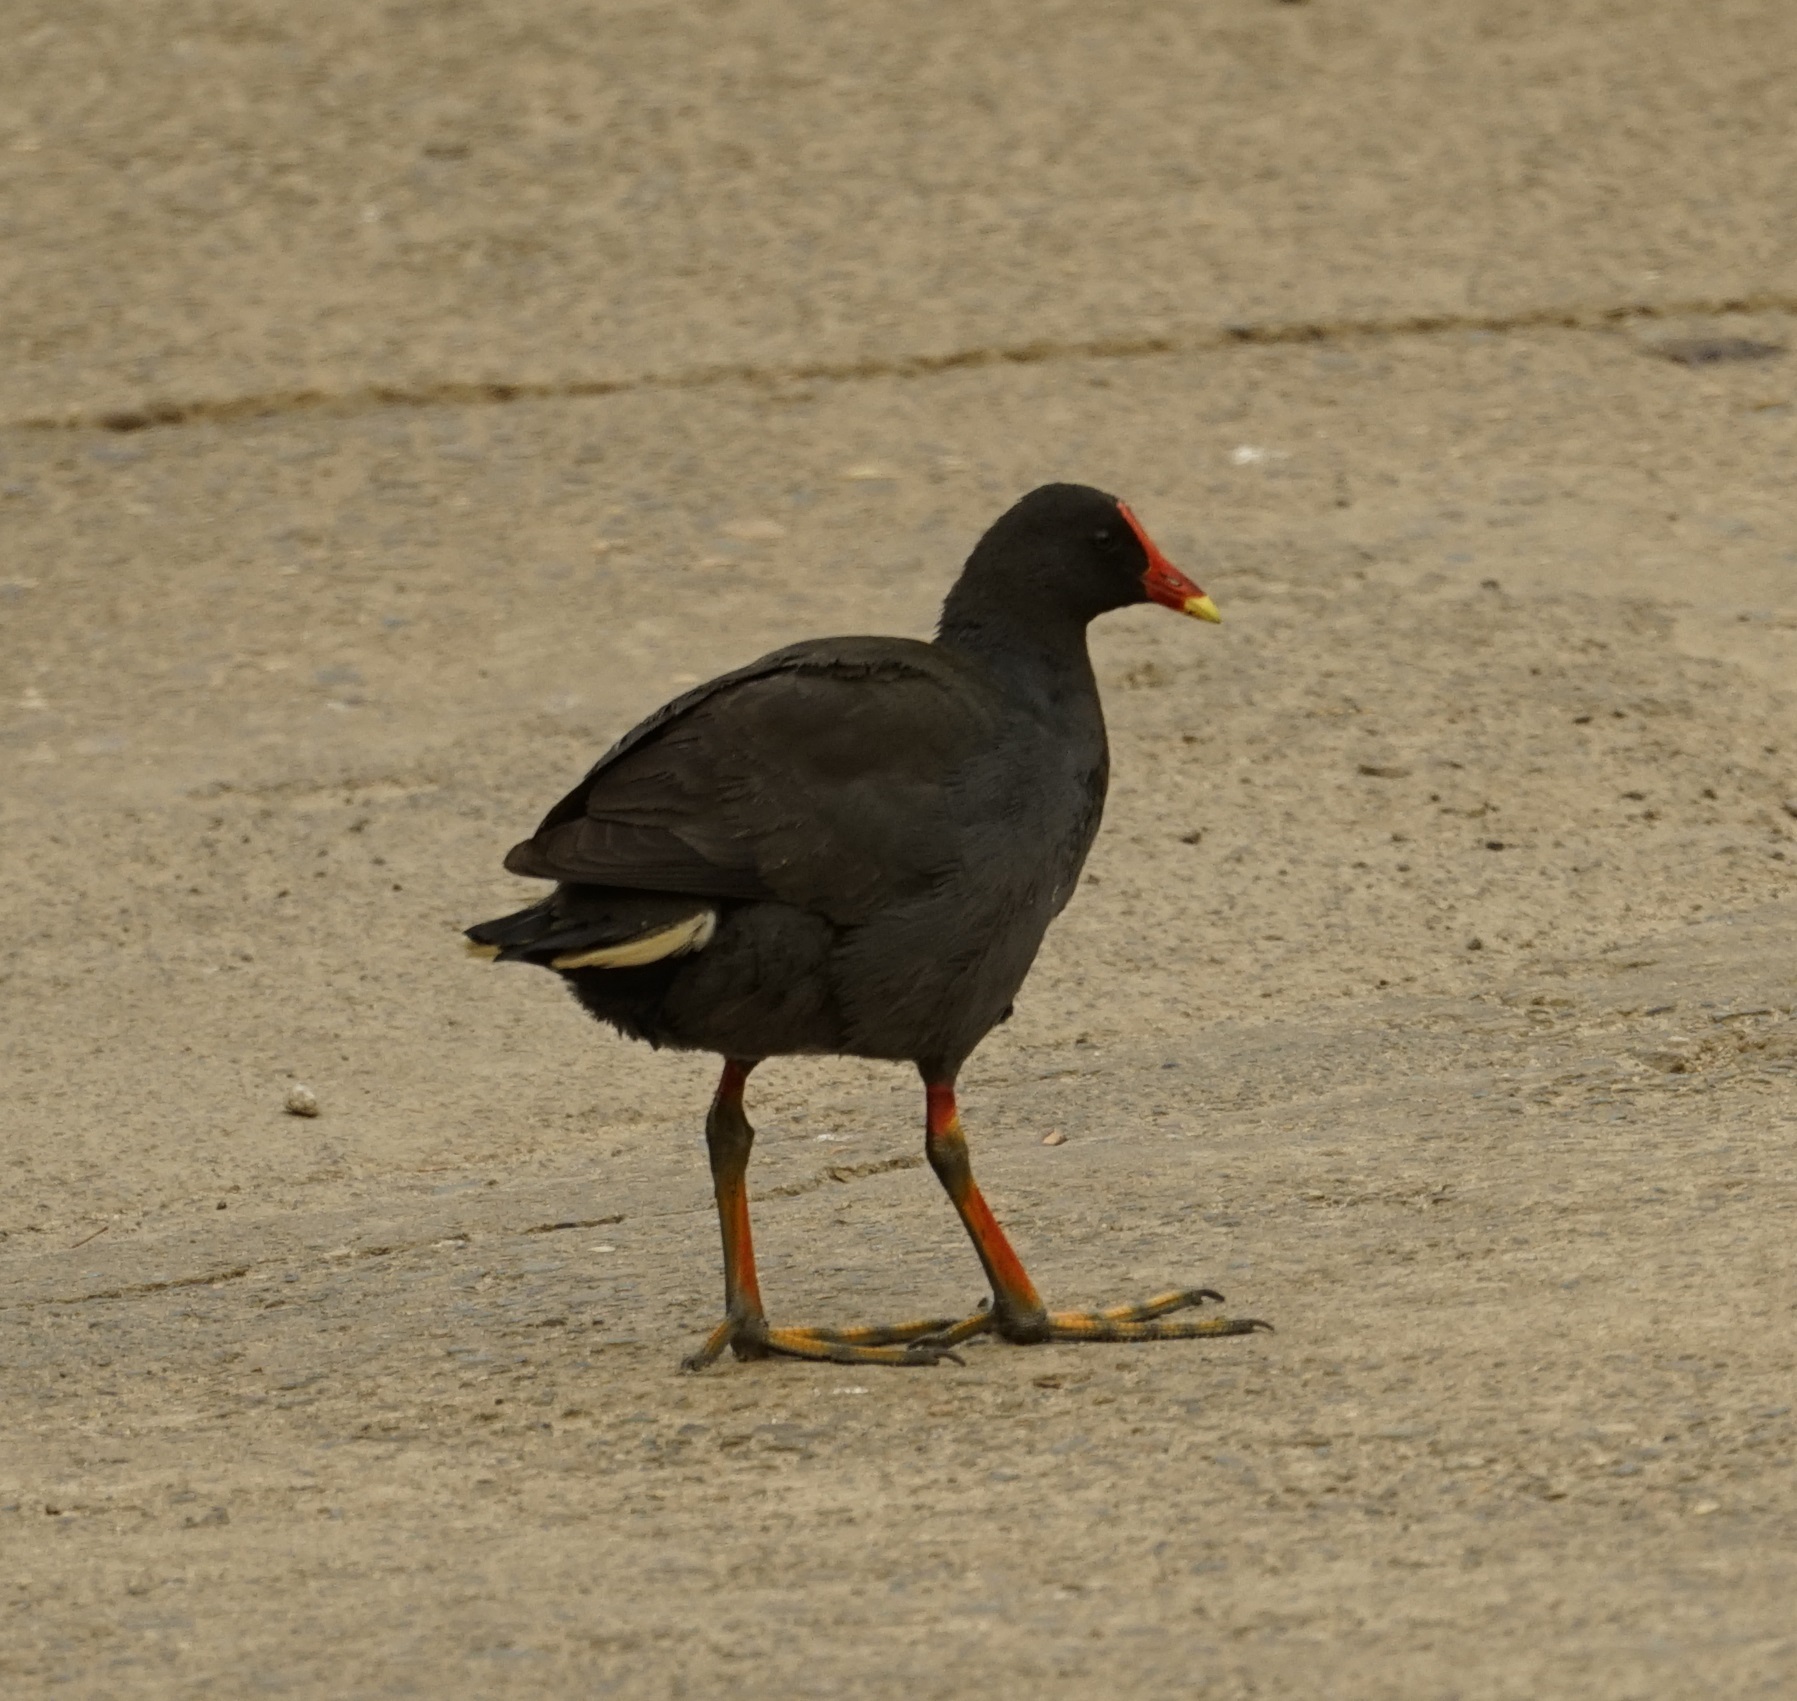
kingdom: Animalia
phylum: Chordata
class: Aves
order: Gruiformes
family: Rallidae
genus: Gallinula
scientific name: Gallinula tenebrosa
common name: Dusky moorhen
